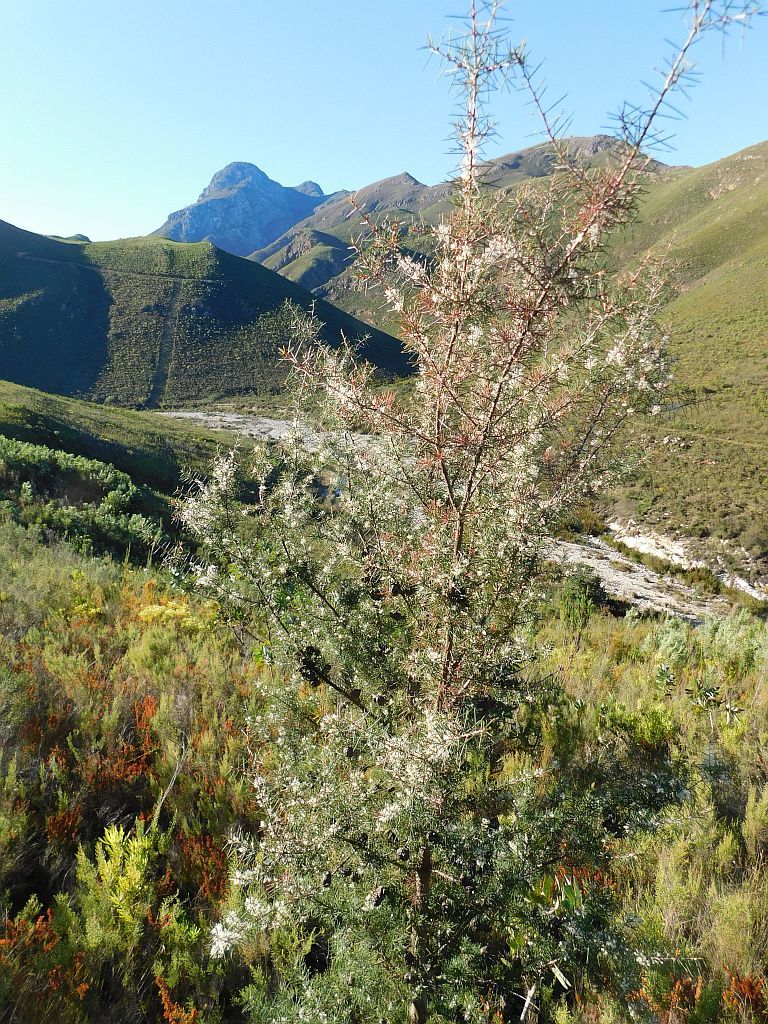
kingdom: Plantae
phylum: Tracheophyta
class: Magnoliopsida
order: Proteales
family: Proteaceae
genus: Hakea
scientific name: Hakea sericea
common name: Needle bush
